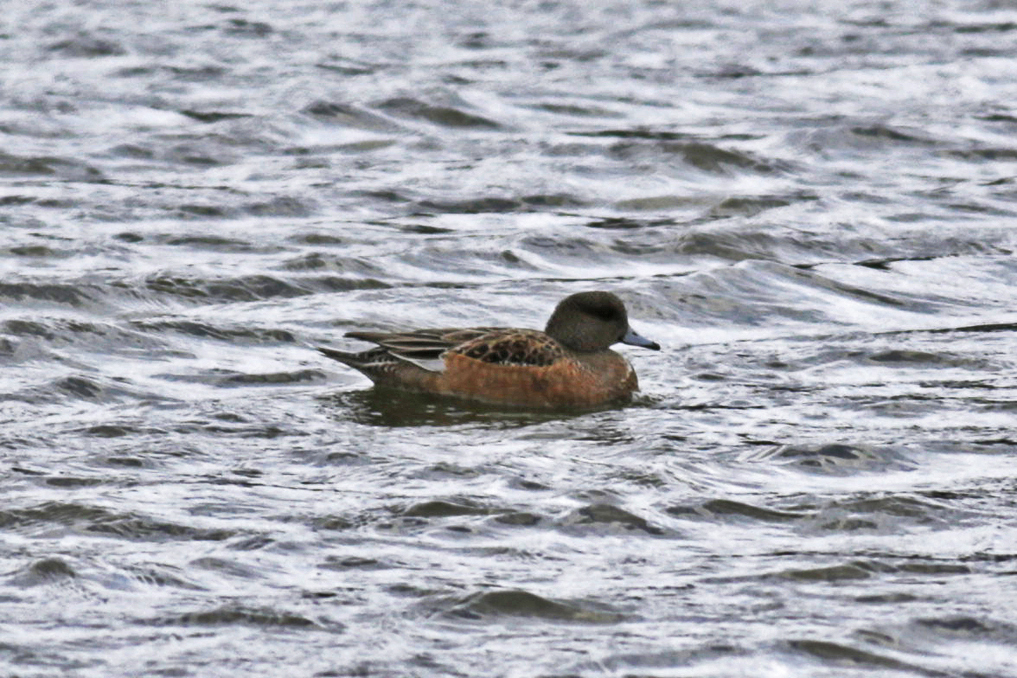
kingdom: Animalia
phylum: Chordata
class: Aves
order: Anseriformes
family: Anatidae
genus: Mareca
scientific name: Mareca americana
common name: American wigeon
